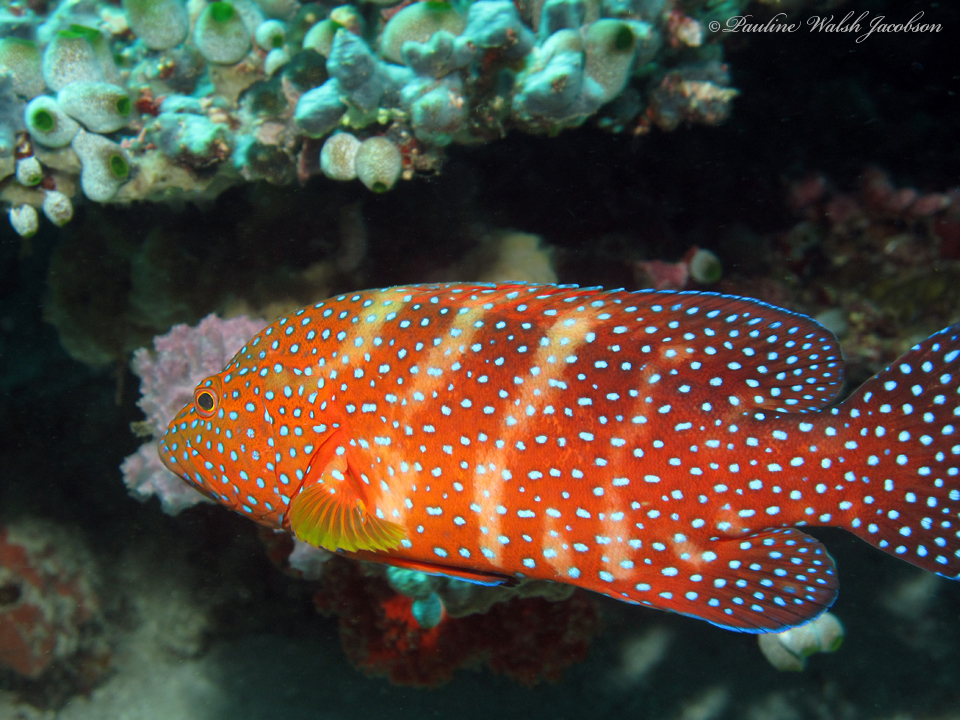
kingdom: Animalia
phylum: Chordata
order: Perciformes
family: Serranidae
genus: Cephalopholis
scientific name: Cephalopholis miniata
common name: Coral hind
